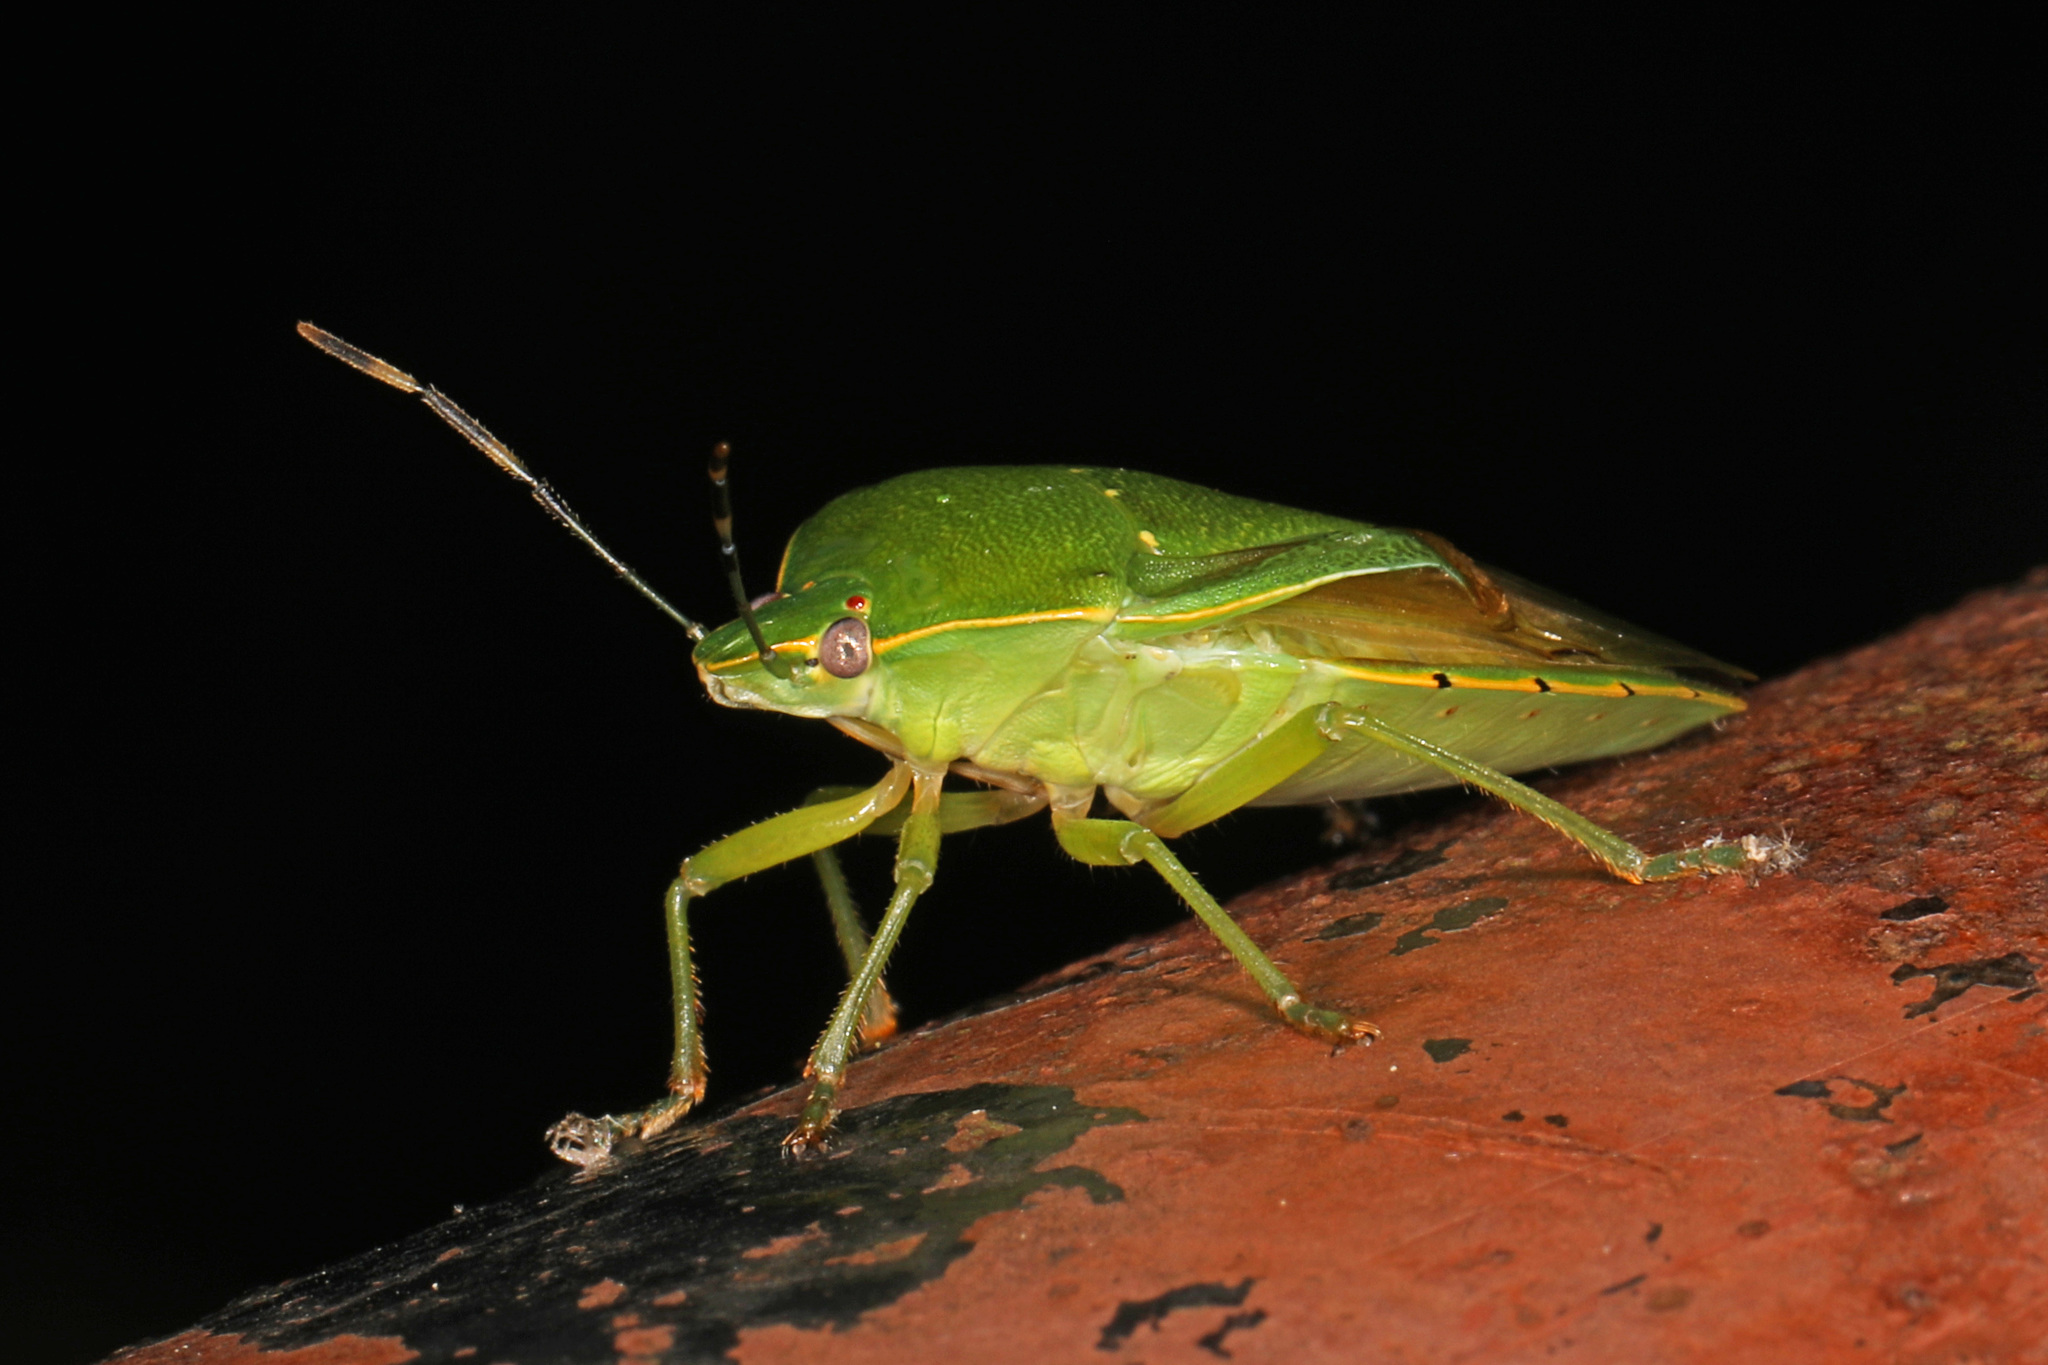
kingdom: Animalia
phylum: Arthropoda
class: Insecta
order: Hemiptera
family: Pentatomidae
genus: Chinavia
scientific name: Chinavia hilaris
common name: Green stink bug
